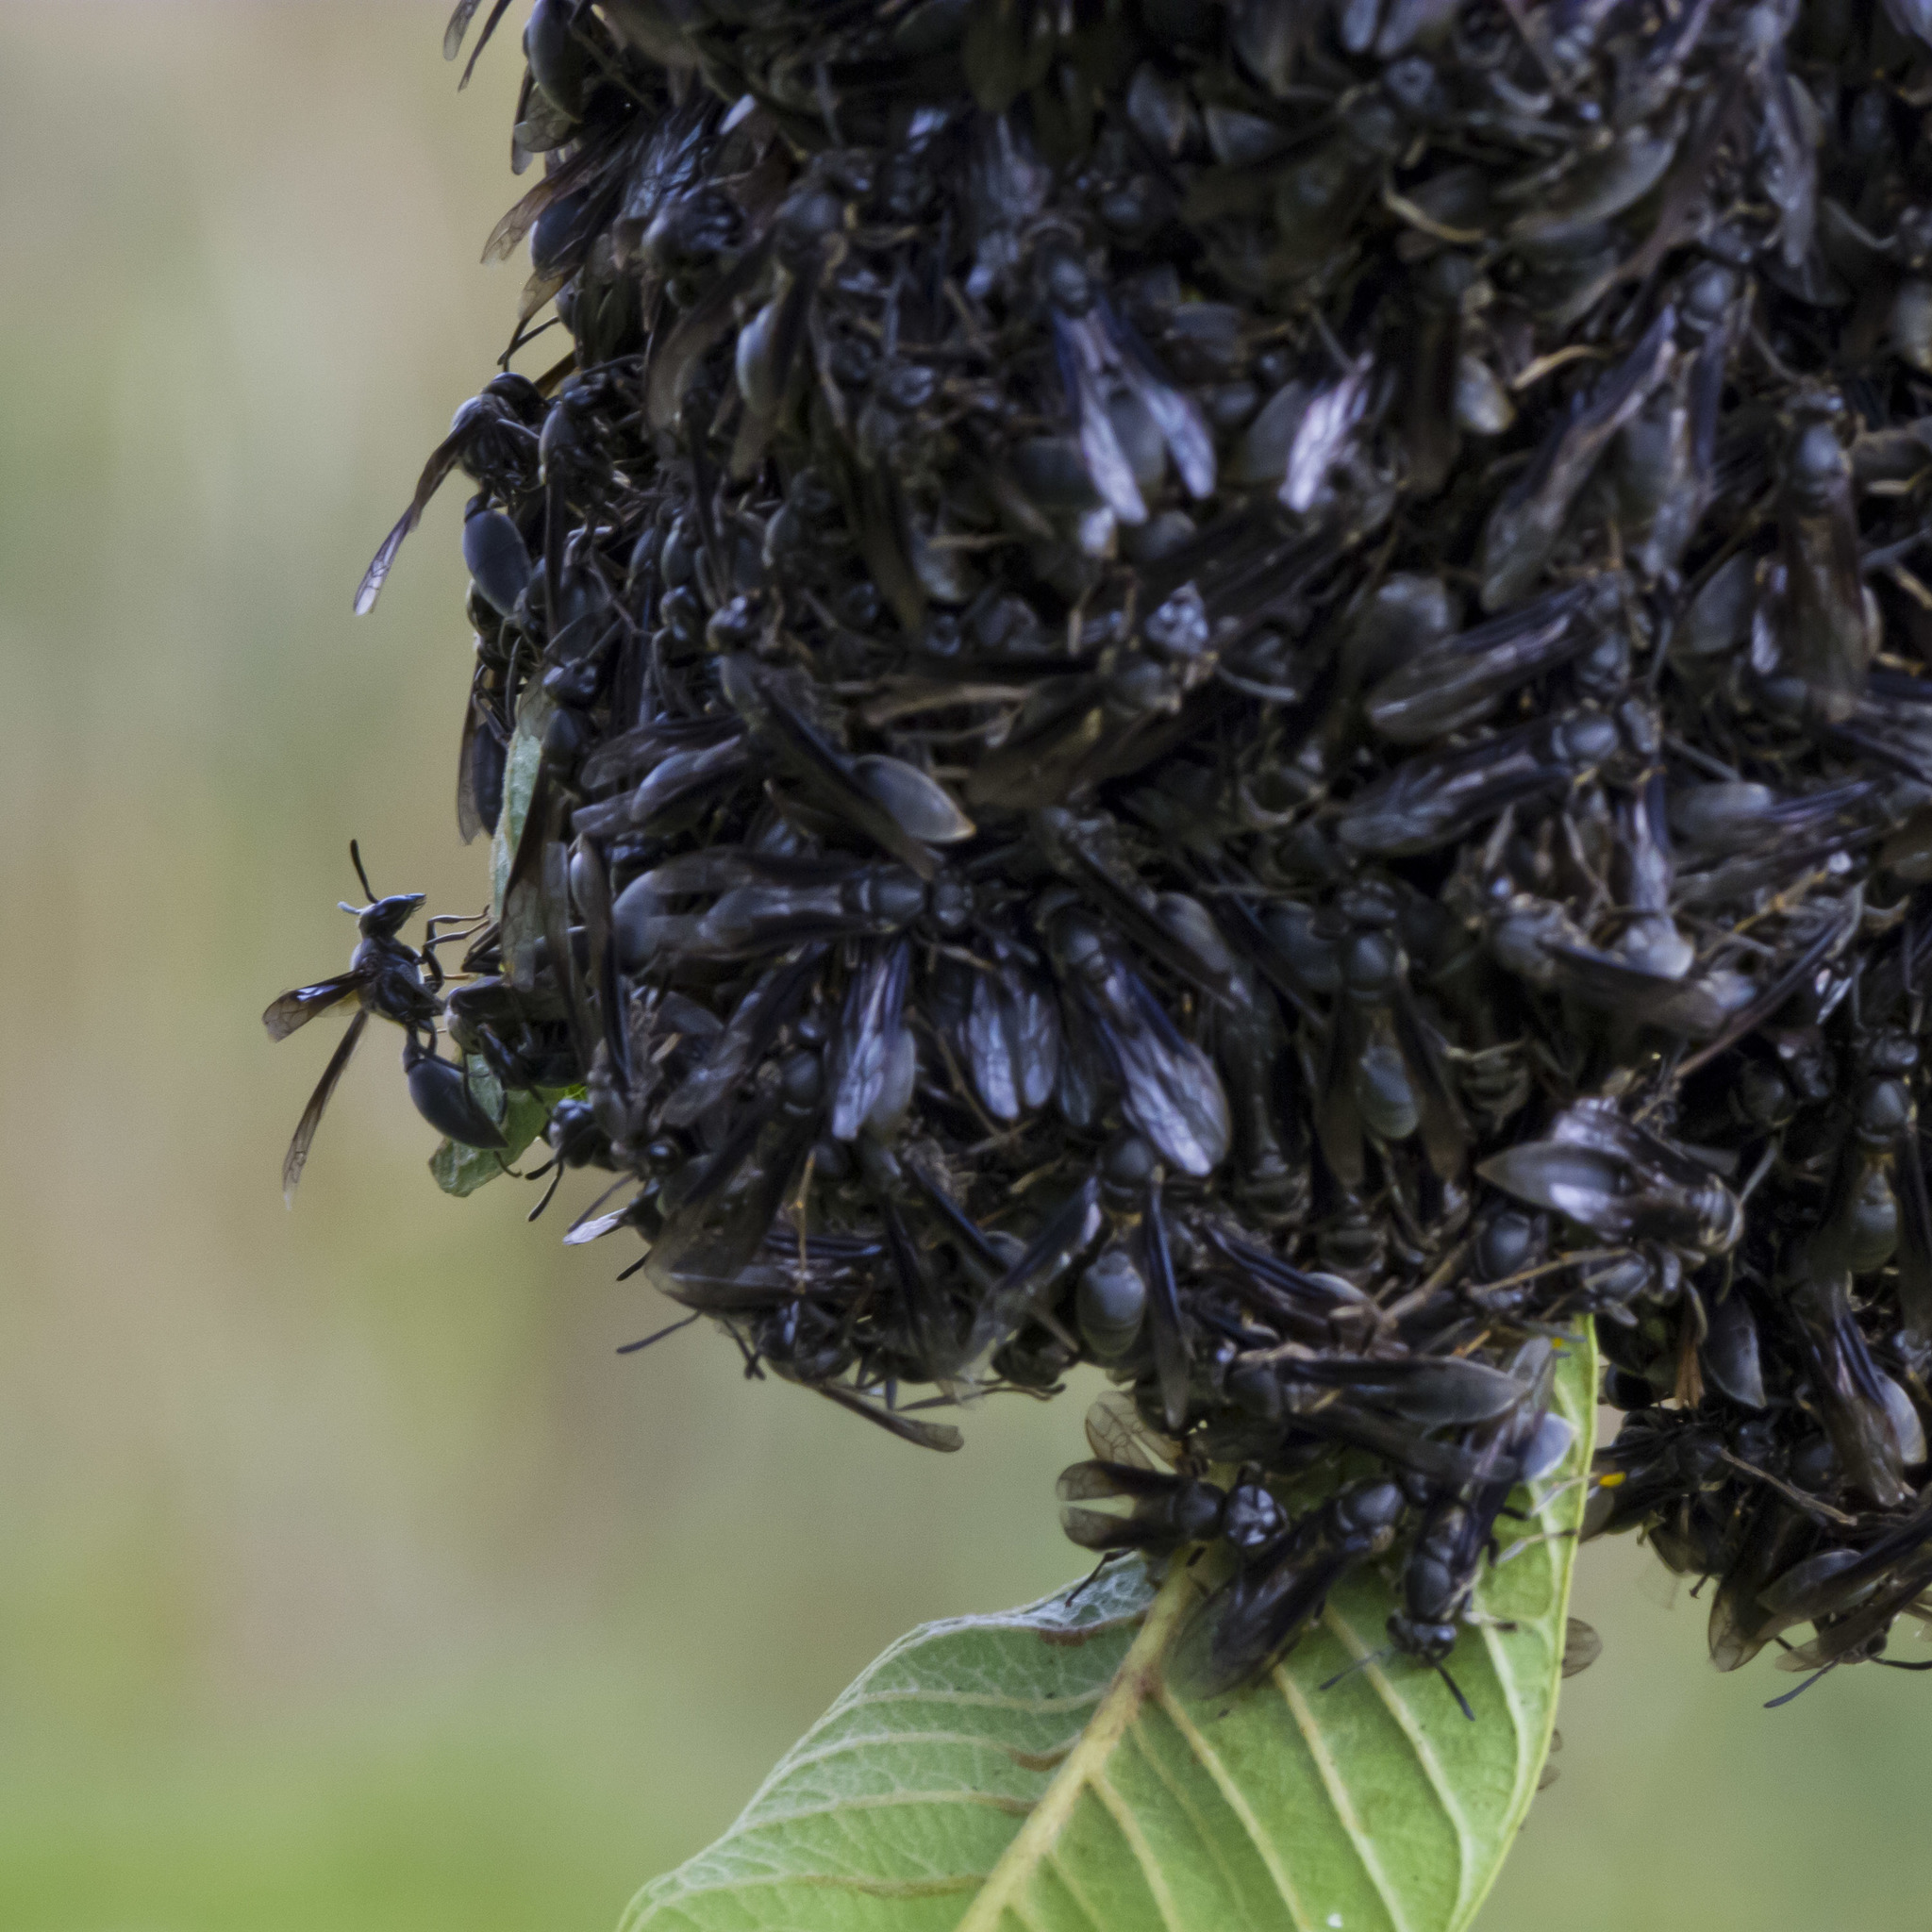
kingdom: Animalia
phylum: Arthropoda
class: Insecta
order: Hymenoptera
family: Eumenidae
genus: Polybia
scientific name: Polybia ignobilis
